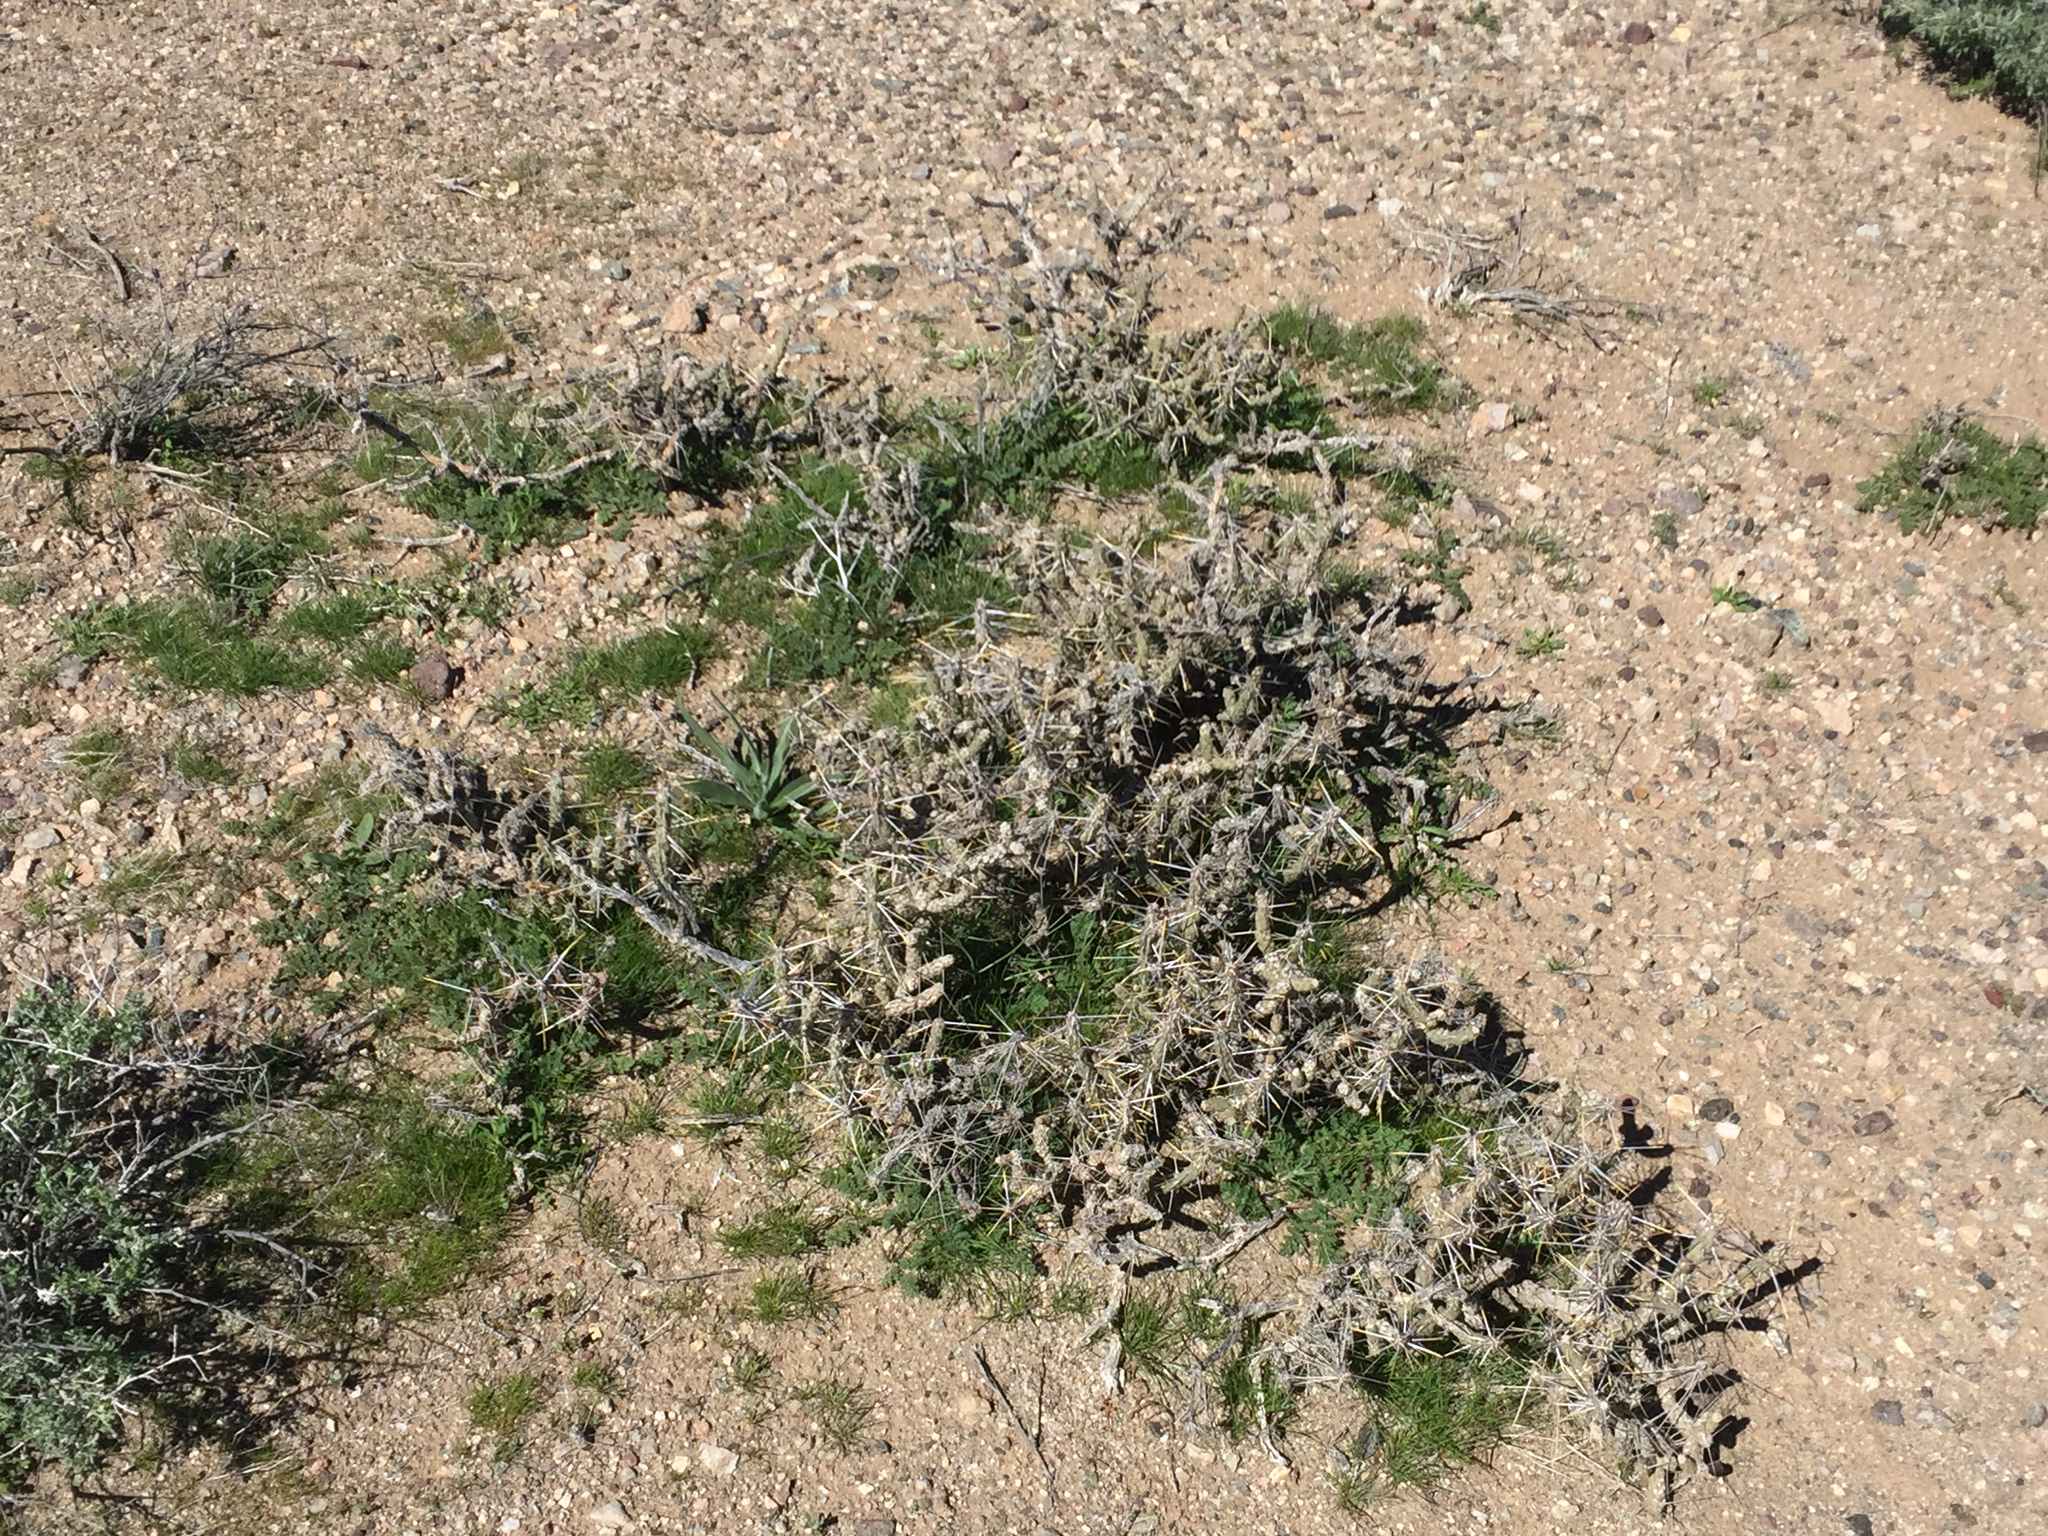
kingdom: Plantae
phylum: Tracheophyta
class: Magnoliopsida
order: Caryophyllales
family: Cactaceae
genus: Cylindropuntia
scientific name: Cylindropuntia ramosissima
